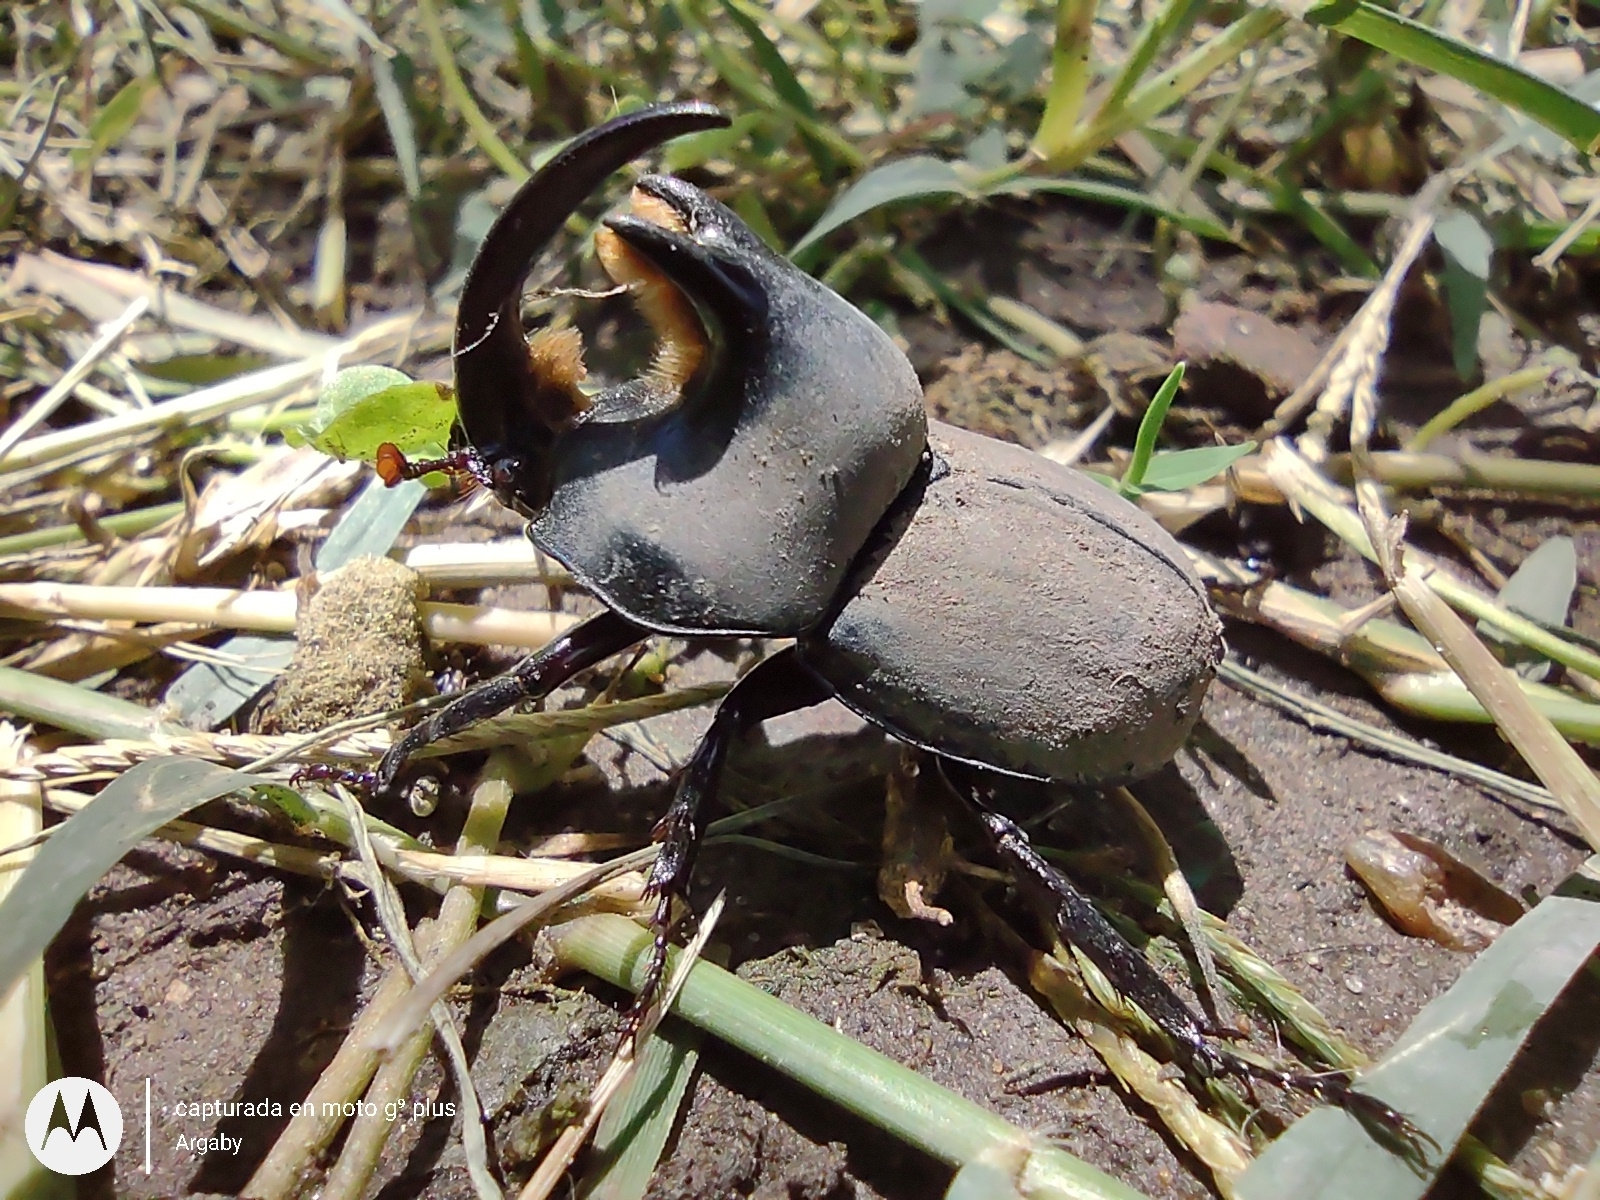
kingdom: Animalia
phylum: Arthropoda
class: Insecta
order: Coleoptera
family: Scarabaeidae
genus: Diloboderus
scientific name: Diloboderus abderus
